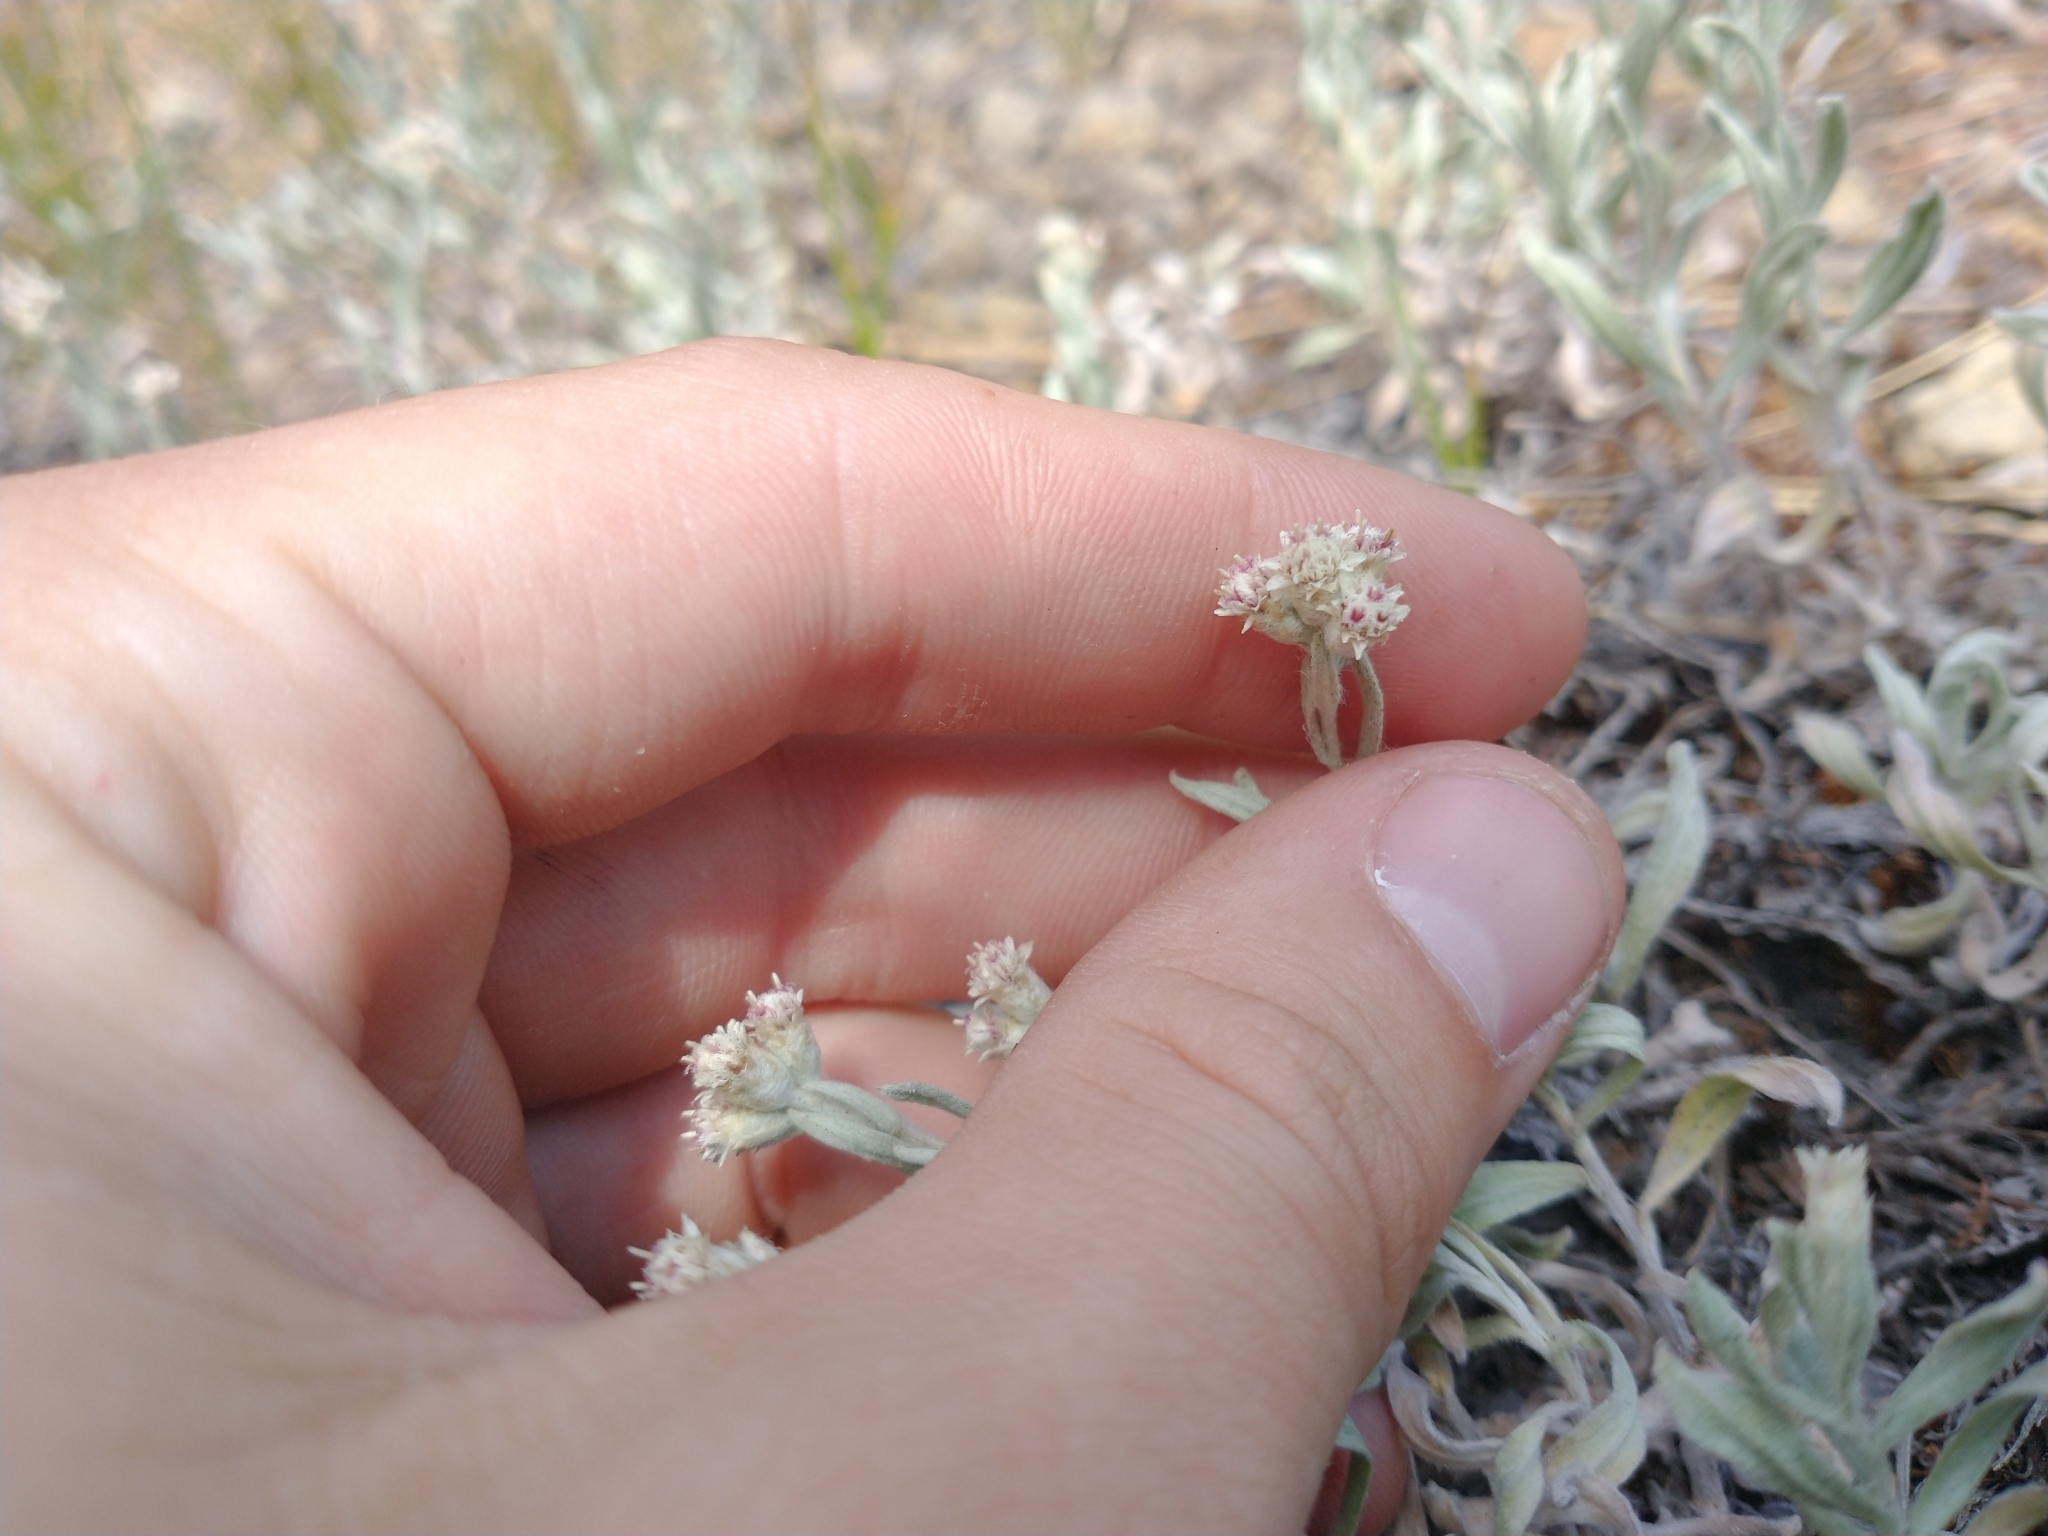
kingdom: Plantae
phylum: Tracheophyta
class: Magnoliopsida
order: Asterales
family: Asteraceae
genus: Antennaria
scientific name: Antennaria geyeri
